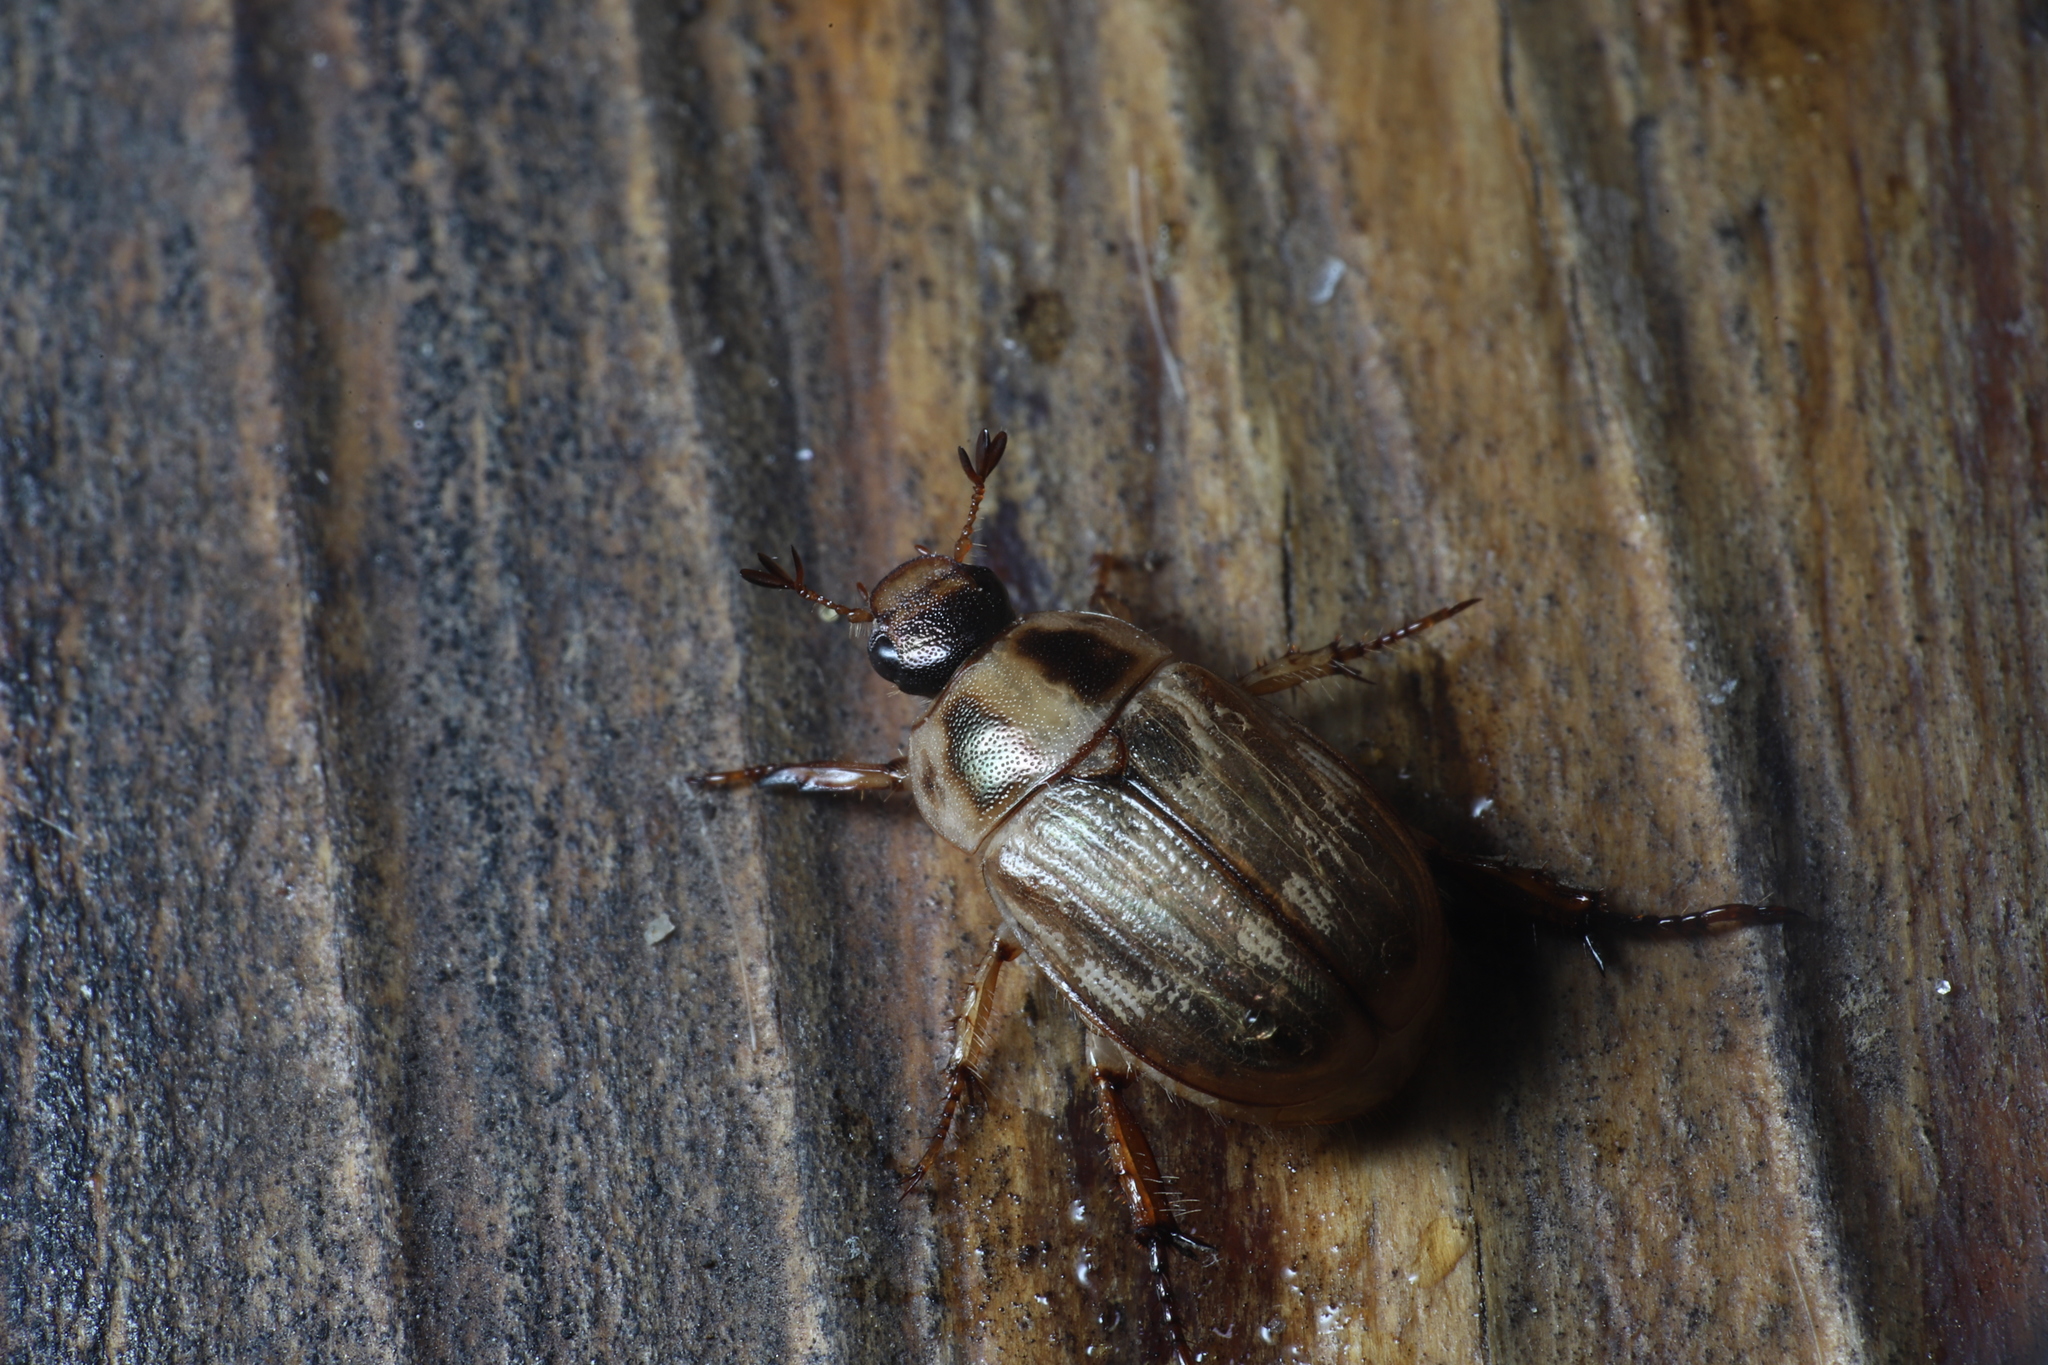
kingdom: Animalia
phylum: Arthropoda
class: Insecta
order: Coleoptera
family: Scarabaeidae
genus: Exomala
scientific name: Exomala orientalis
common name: Oriental beetle
